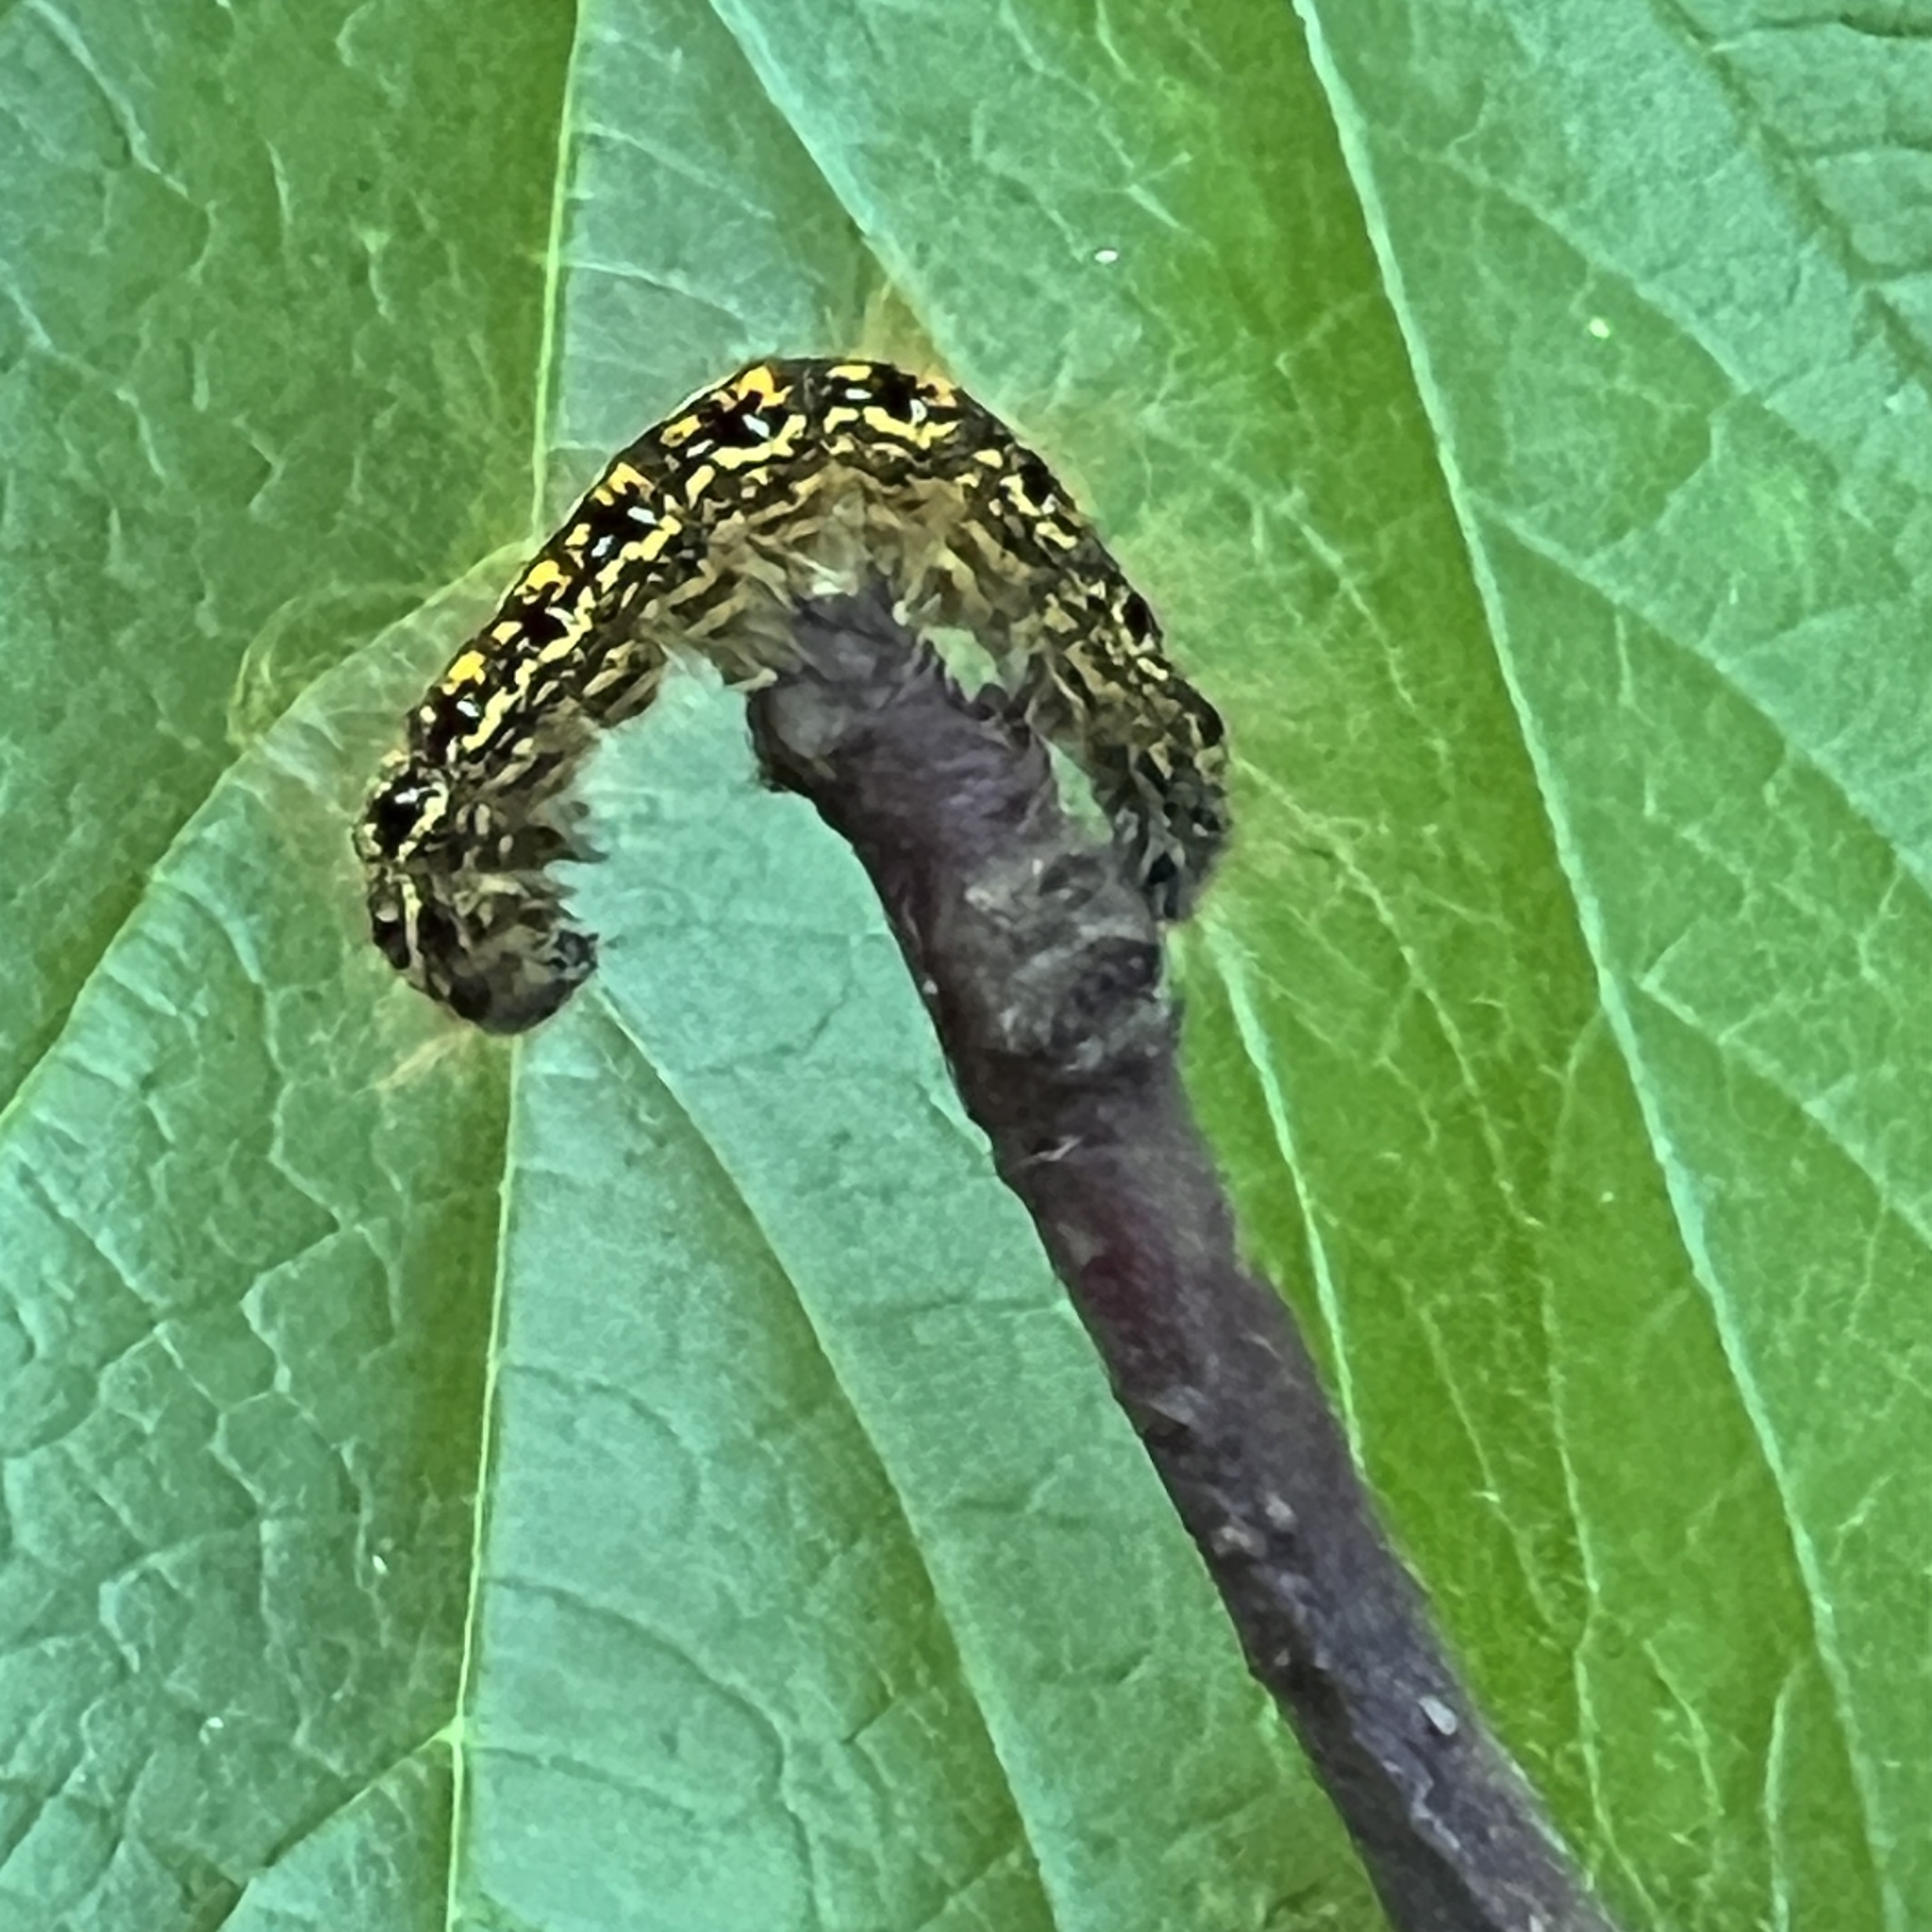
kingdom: Animalia
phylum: Arthropoda
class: Insecta
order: Lepidoptera
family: Lasiocampidae
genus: Malacosoma
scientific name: Malacosoma californica
